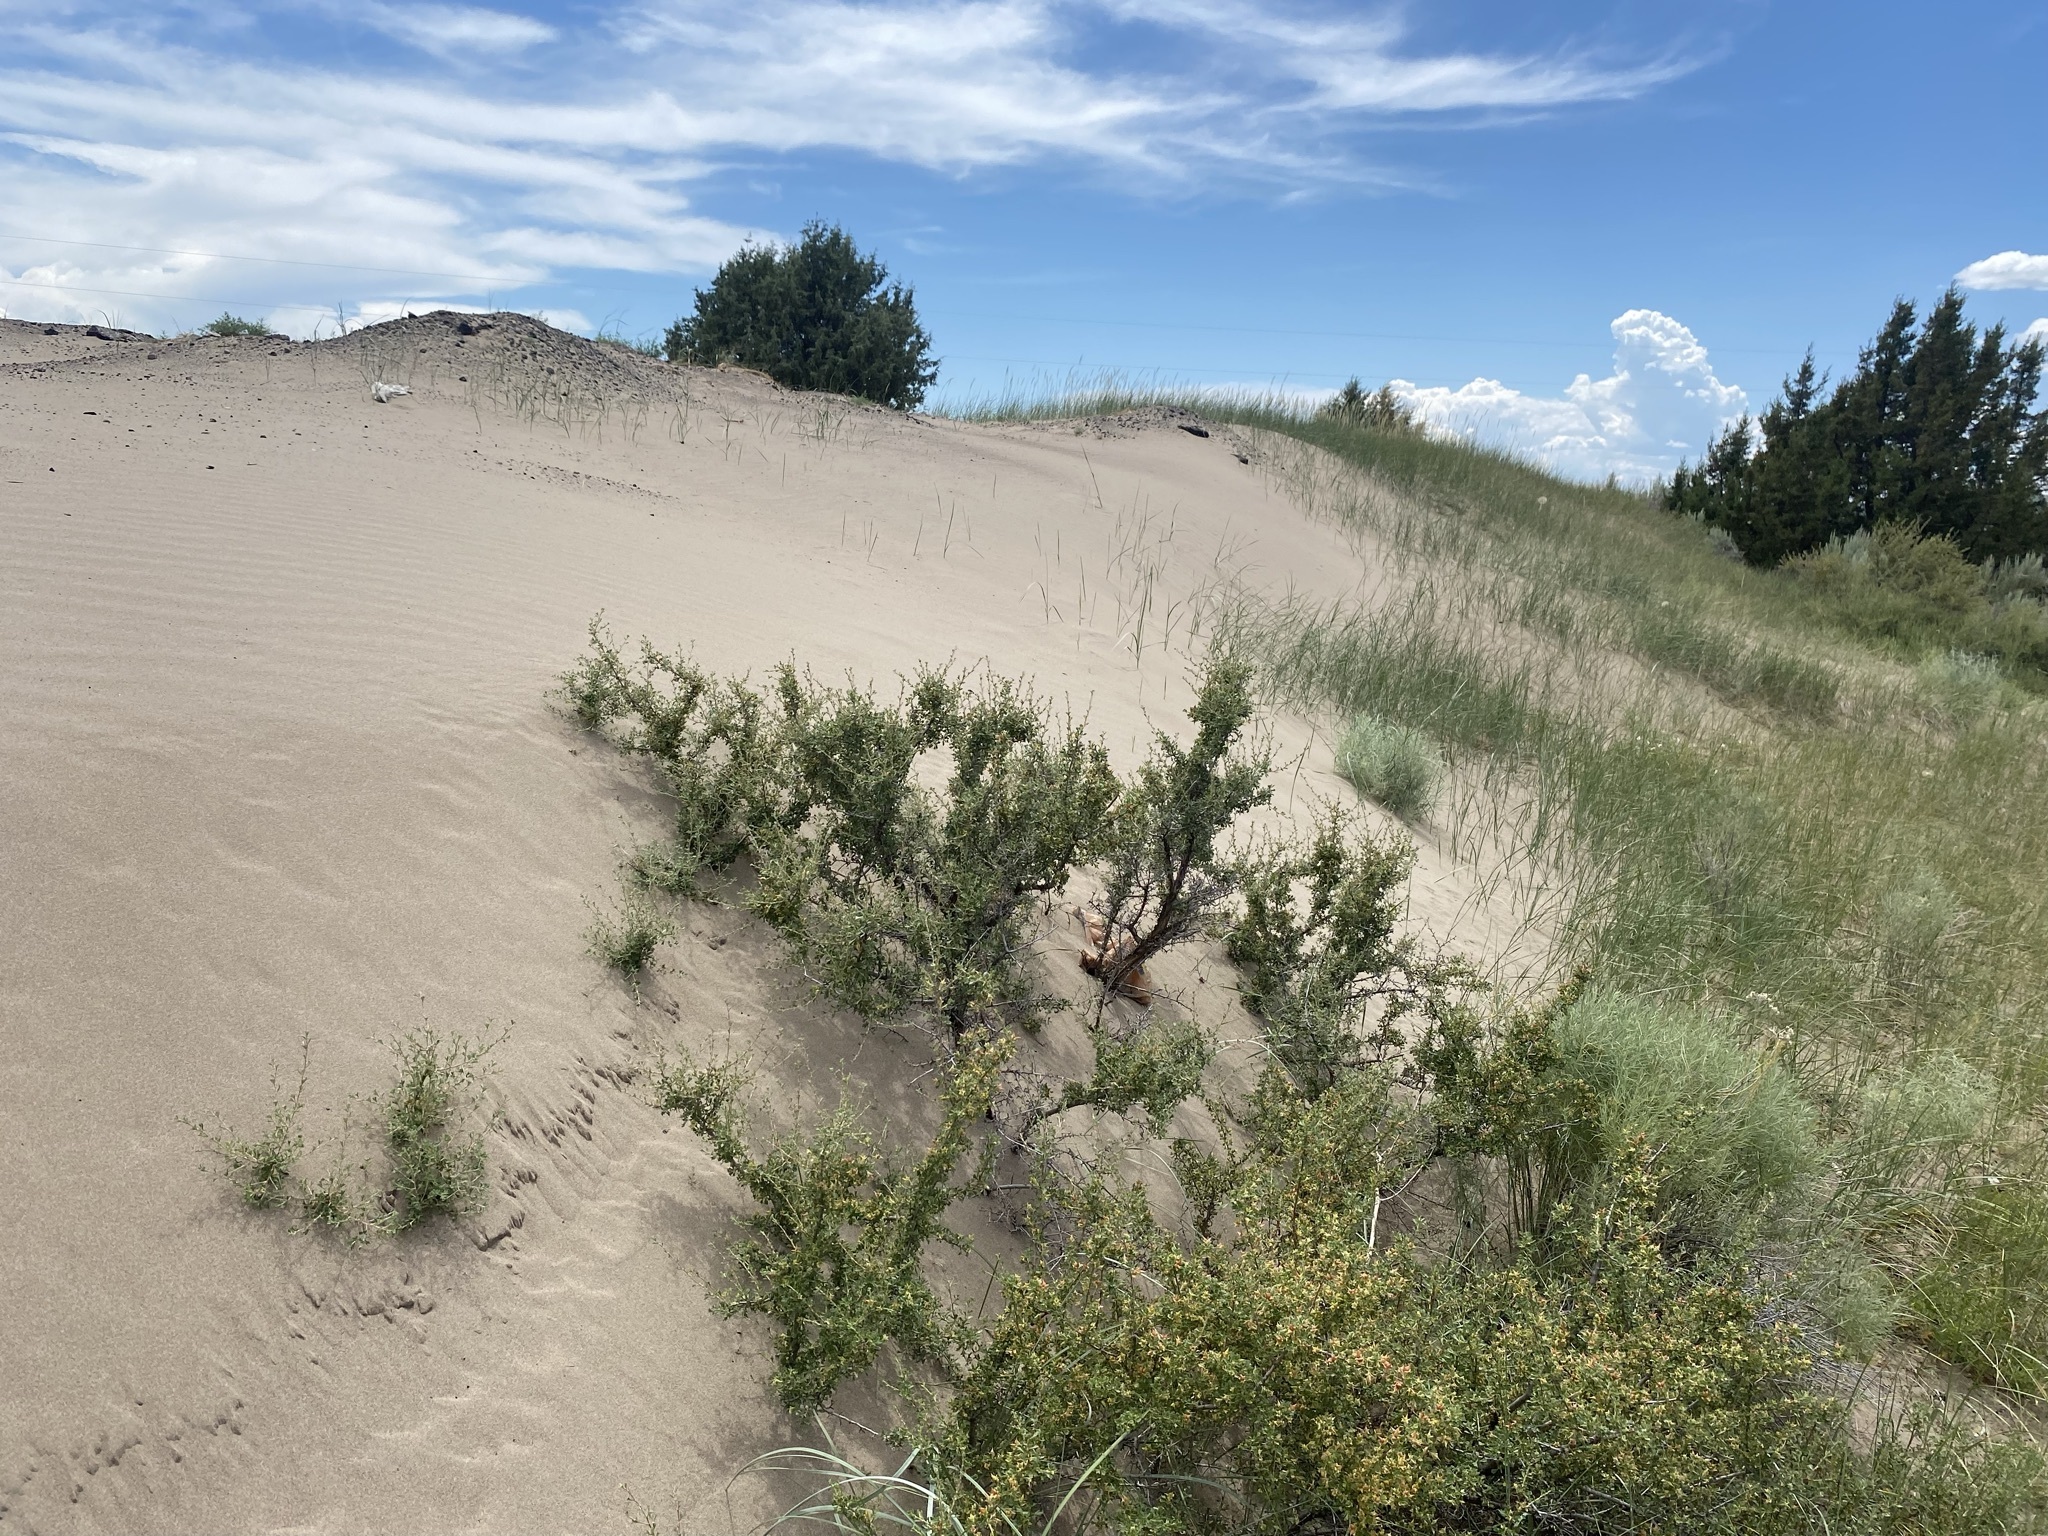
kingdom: Plantae
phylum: Tracheophyta
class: Magnoliopsida
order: Boraginales
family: Boraginaceae
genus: Cryptantha
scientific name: Cryptantha fendleri
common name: Sand-dune cryptantha
